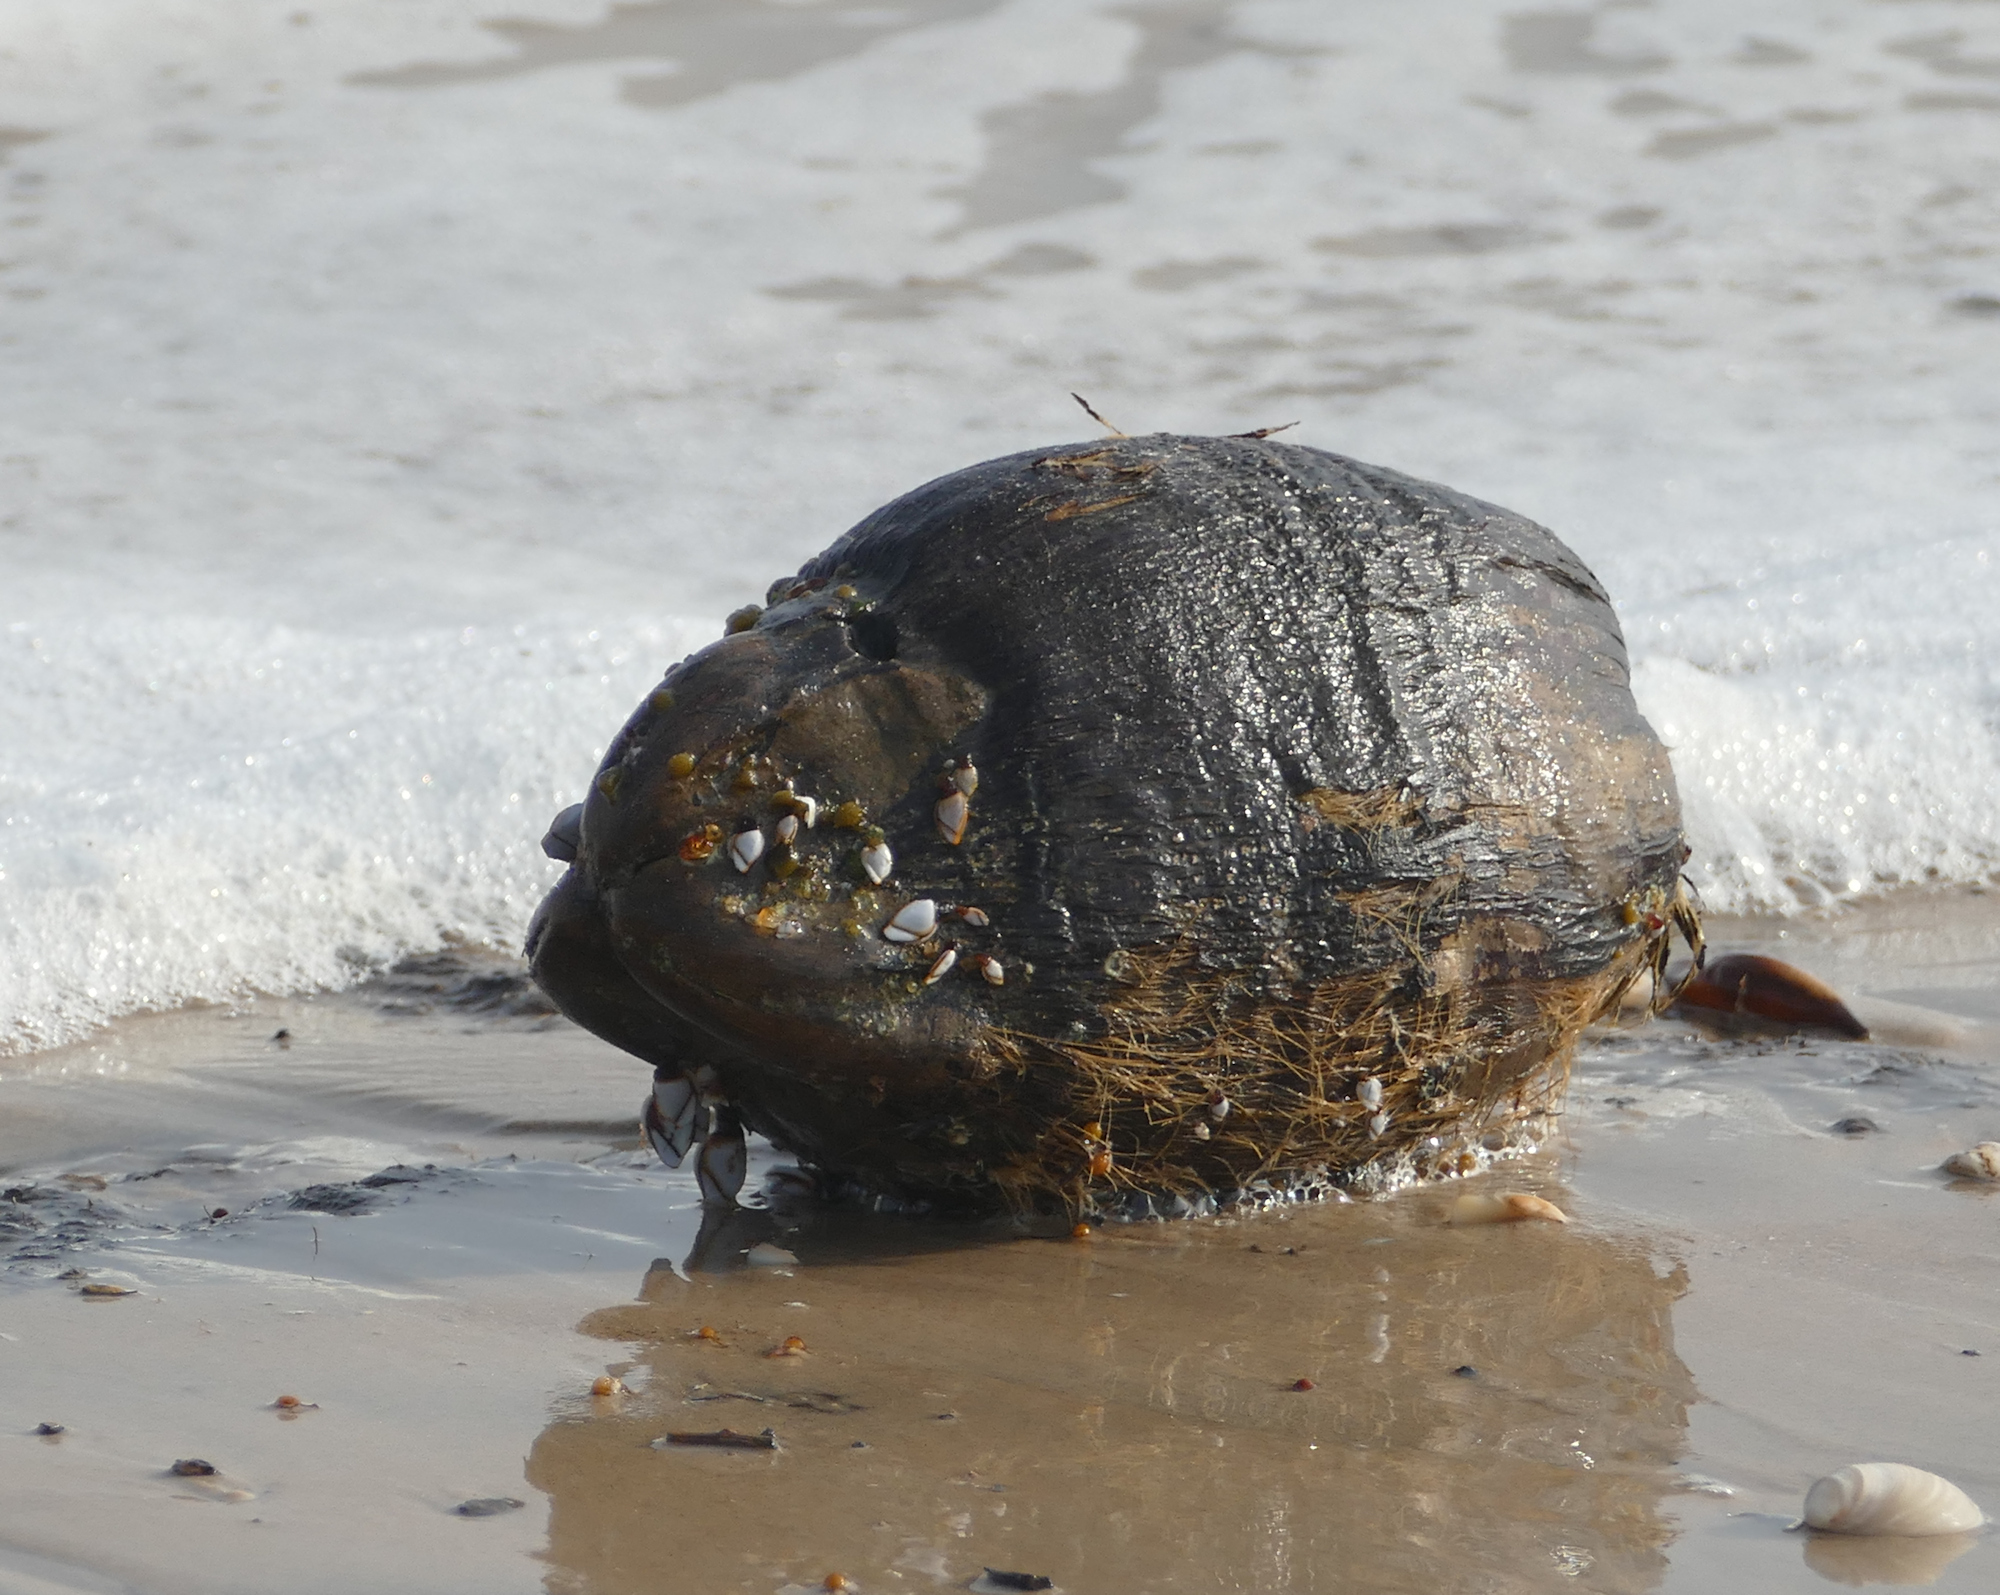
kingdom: Plantae
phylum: Tracheophyta
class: Liliopsida
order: Arecales
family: Arecaceae
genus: Cocos
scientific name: Cocos nucifera
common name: Coconut palm
